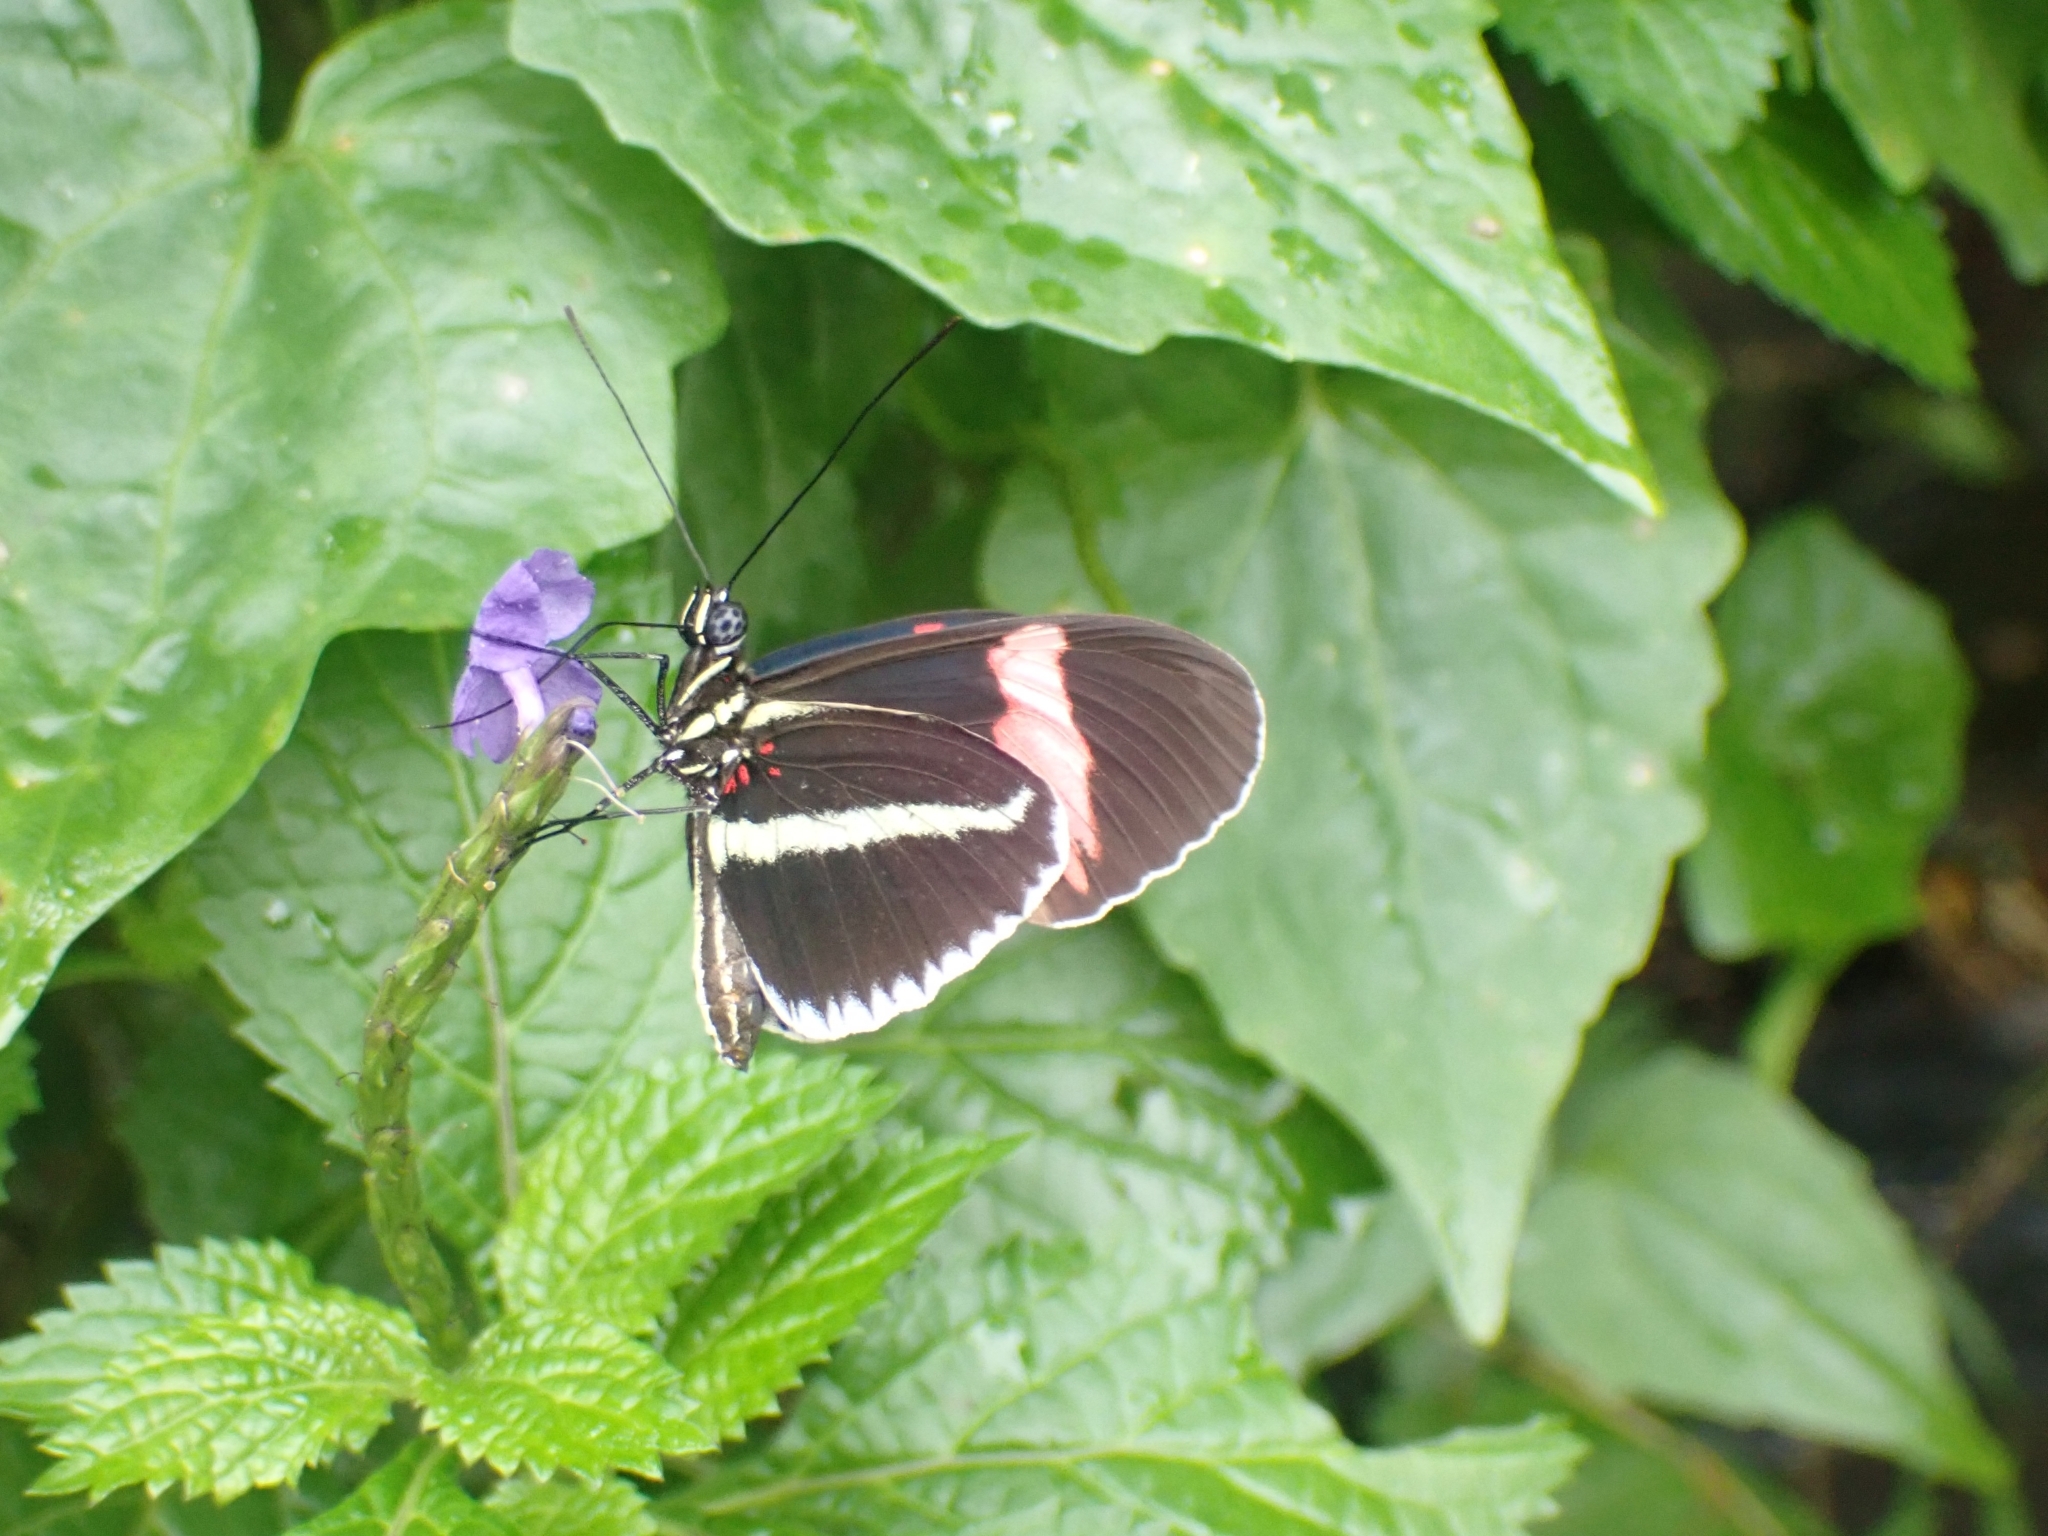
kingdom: Animalia
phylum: Arthropoda
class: Insecta
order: Lepidoptera
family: Nymphalidae
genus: Heliconius
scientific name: Heliconius erato
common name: Common patch longwing
